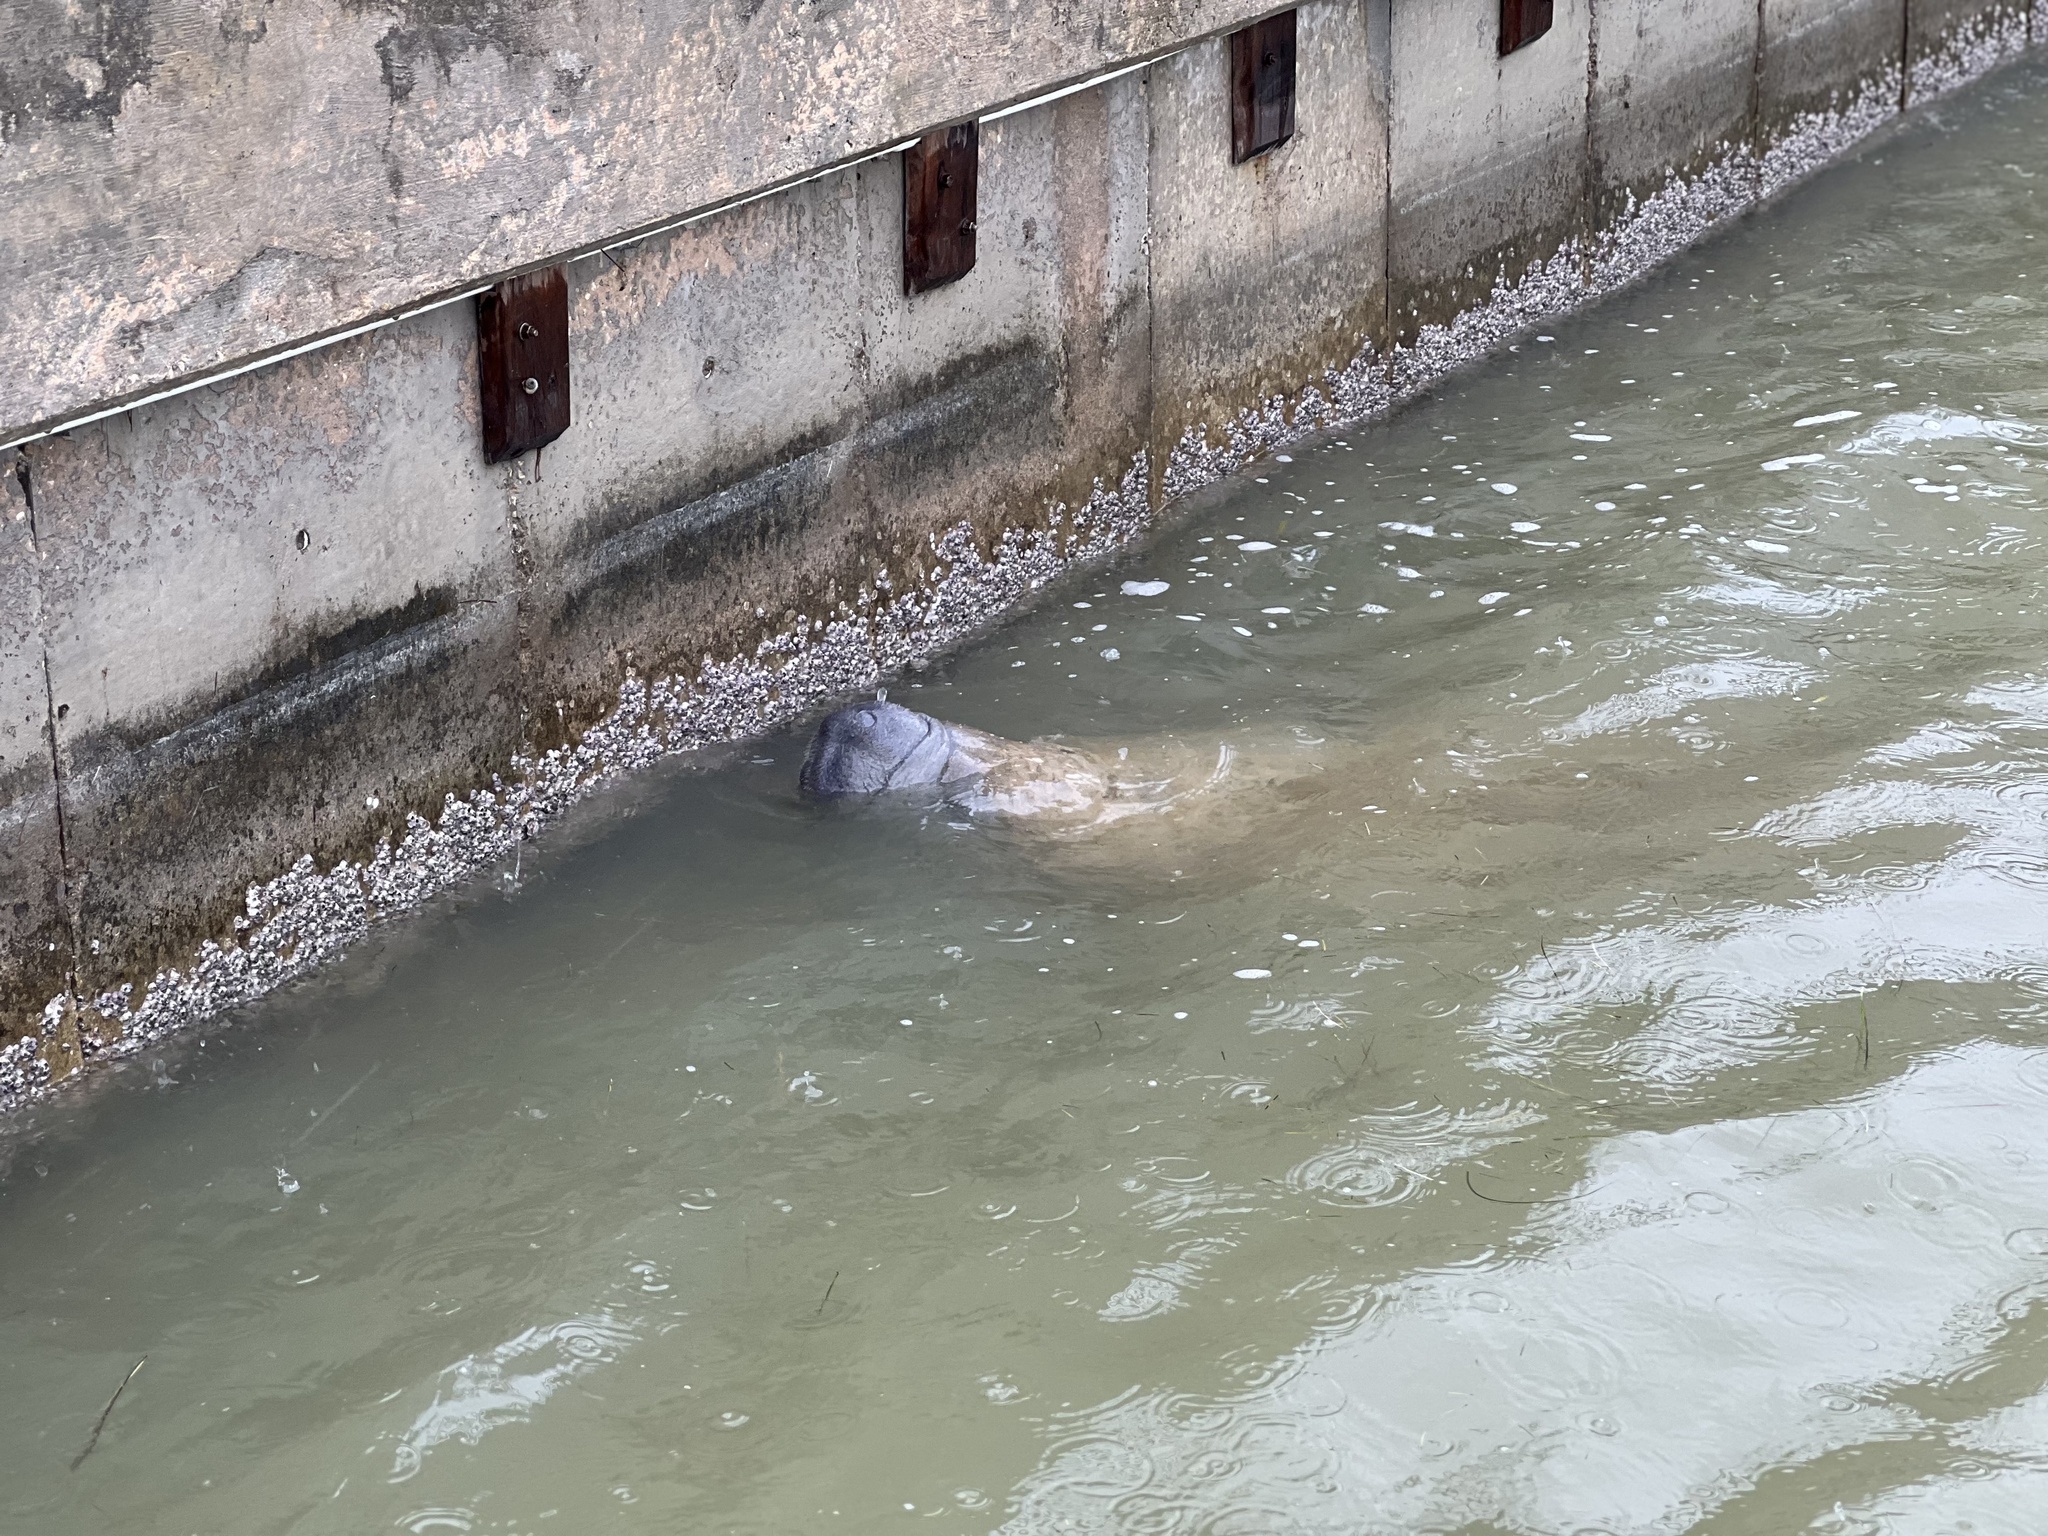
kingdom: Animalia
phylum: Chordata
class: Mammalia
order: Sirenia
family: Trichechidae
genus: Trichechus
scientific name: Trichechus manatus
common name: West indian manatee
